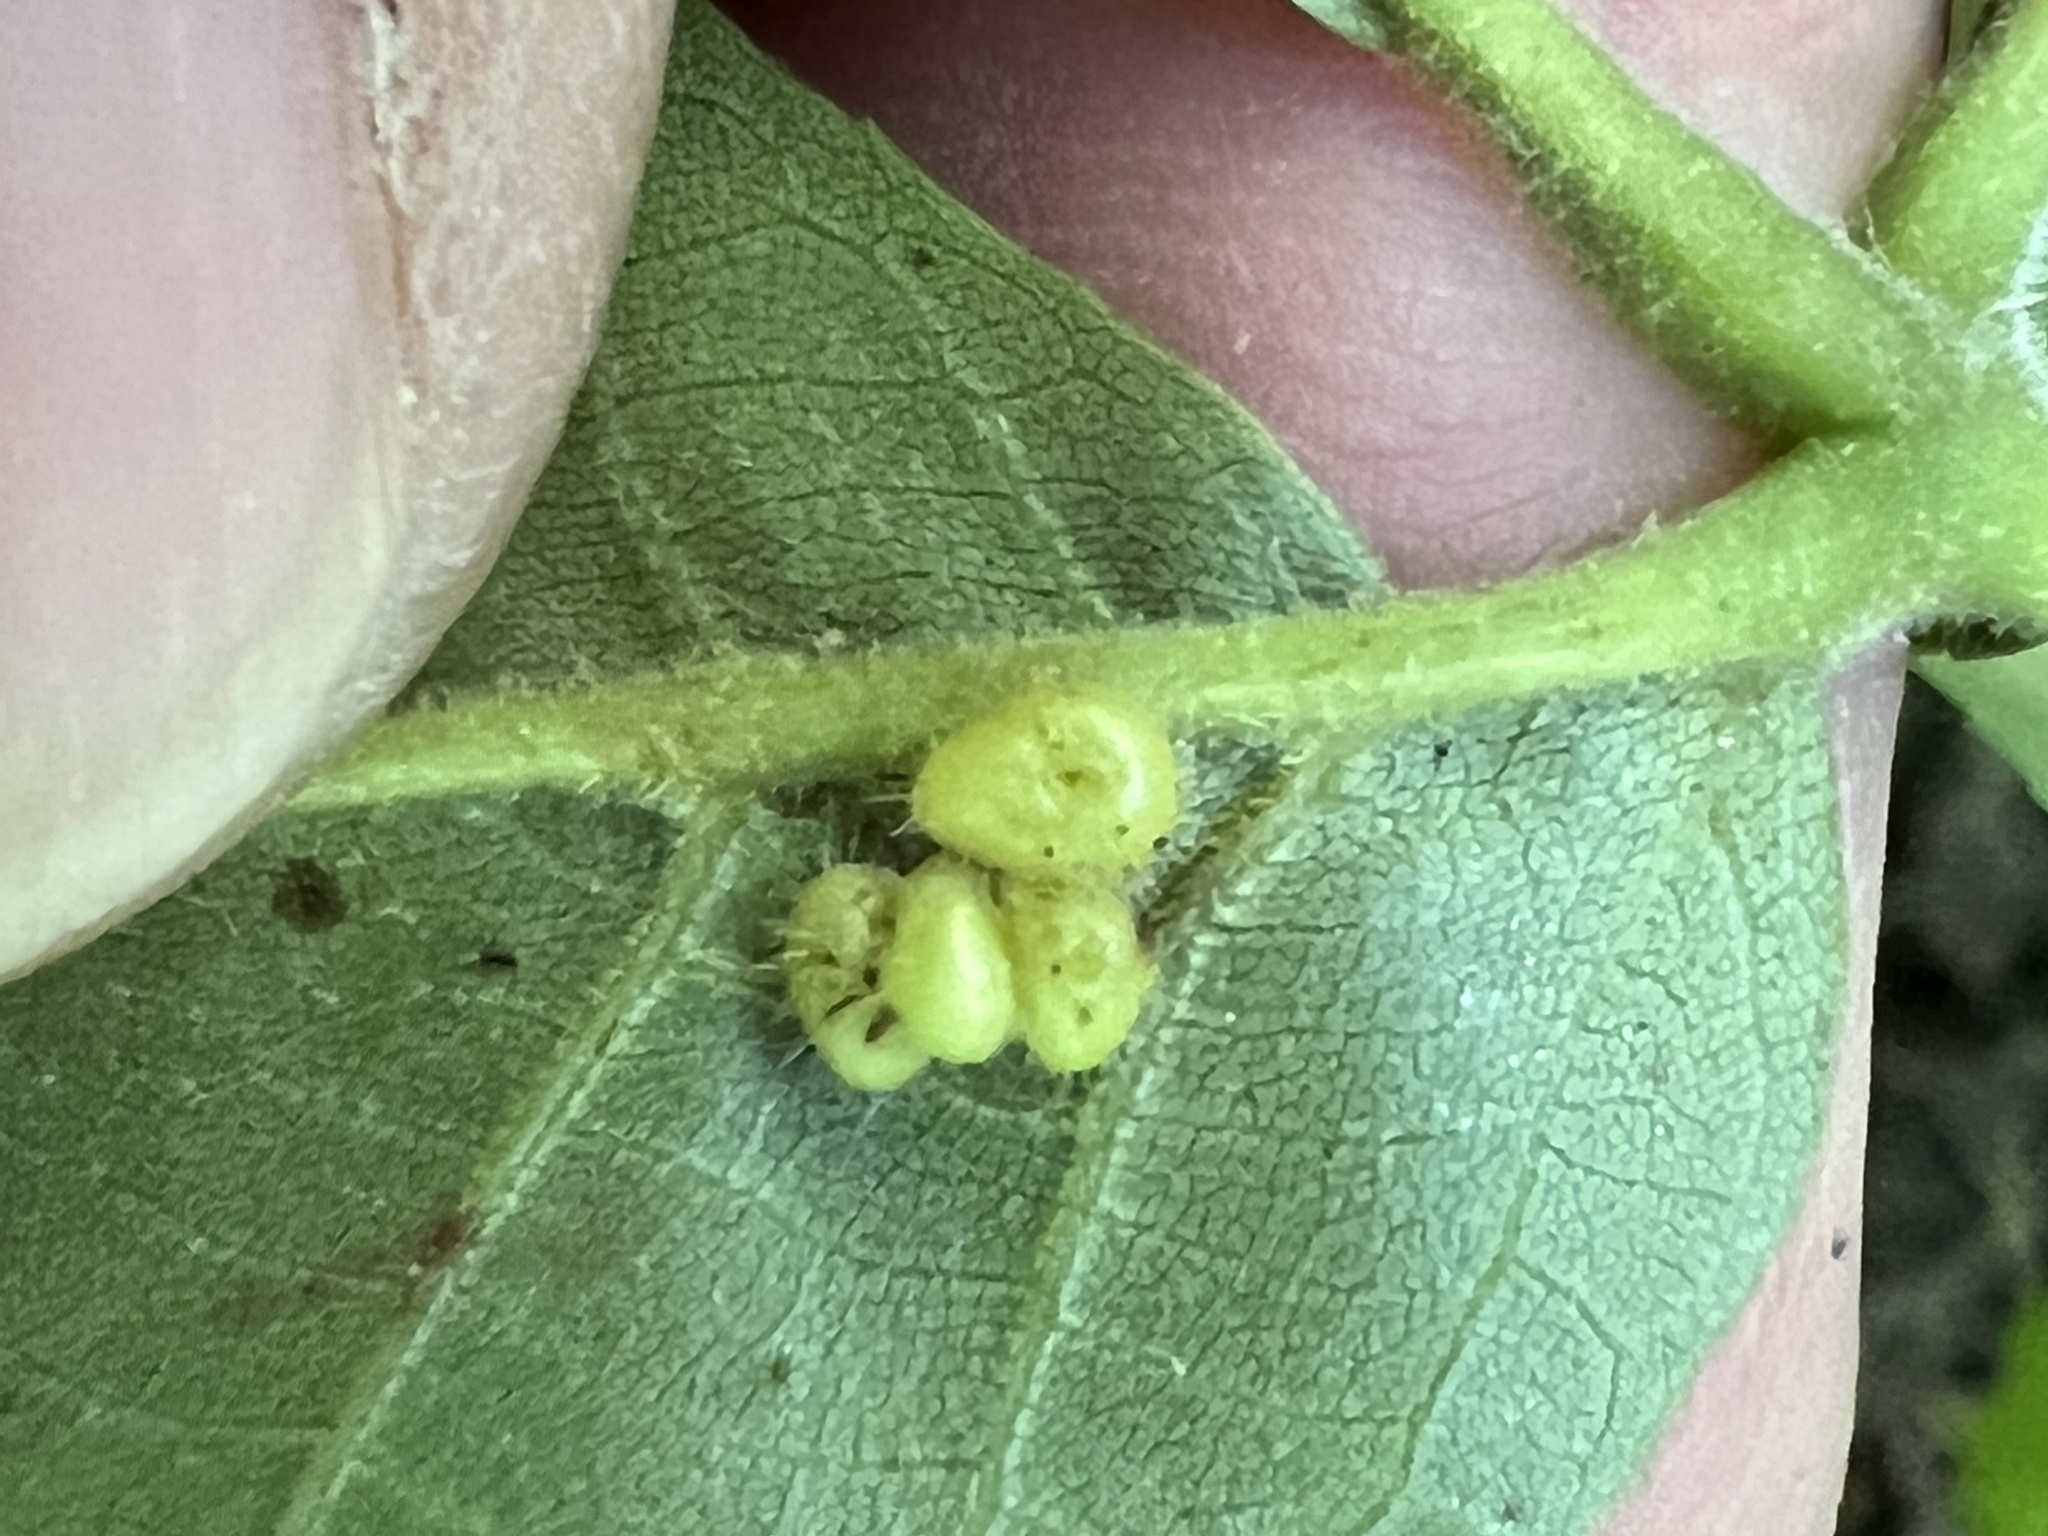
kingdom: Animalia
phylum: Arthropoda
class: Insecta
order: Diptera
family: Cecidomyiidae
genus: Caryomyia
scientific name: Caryomyia thompsoni
